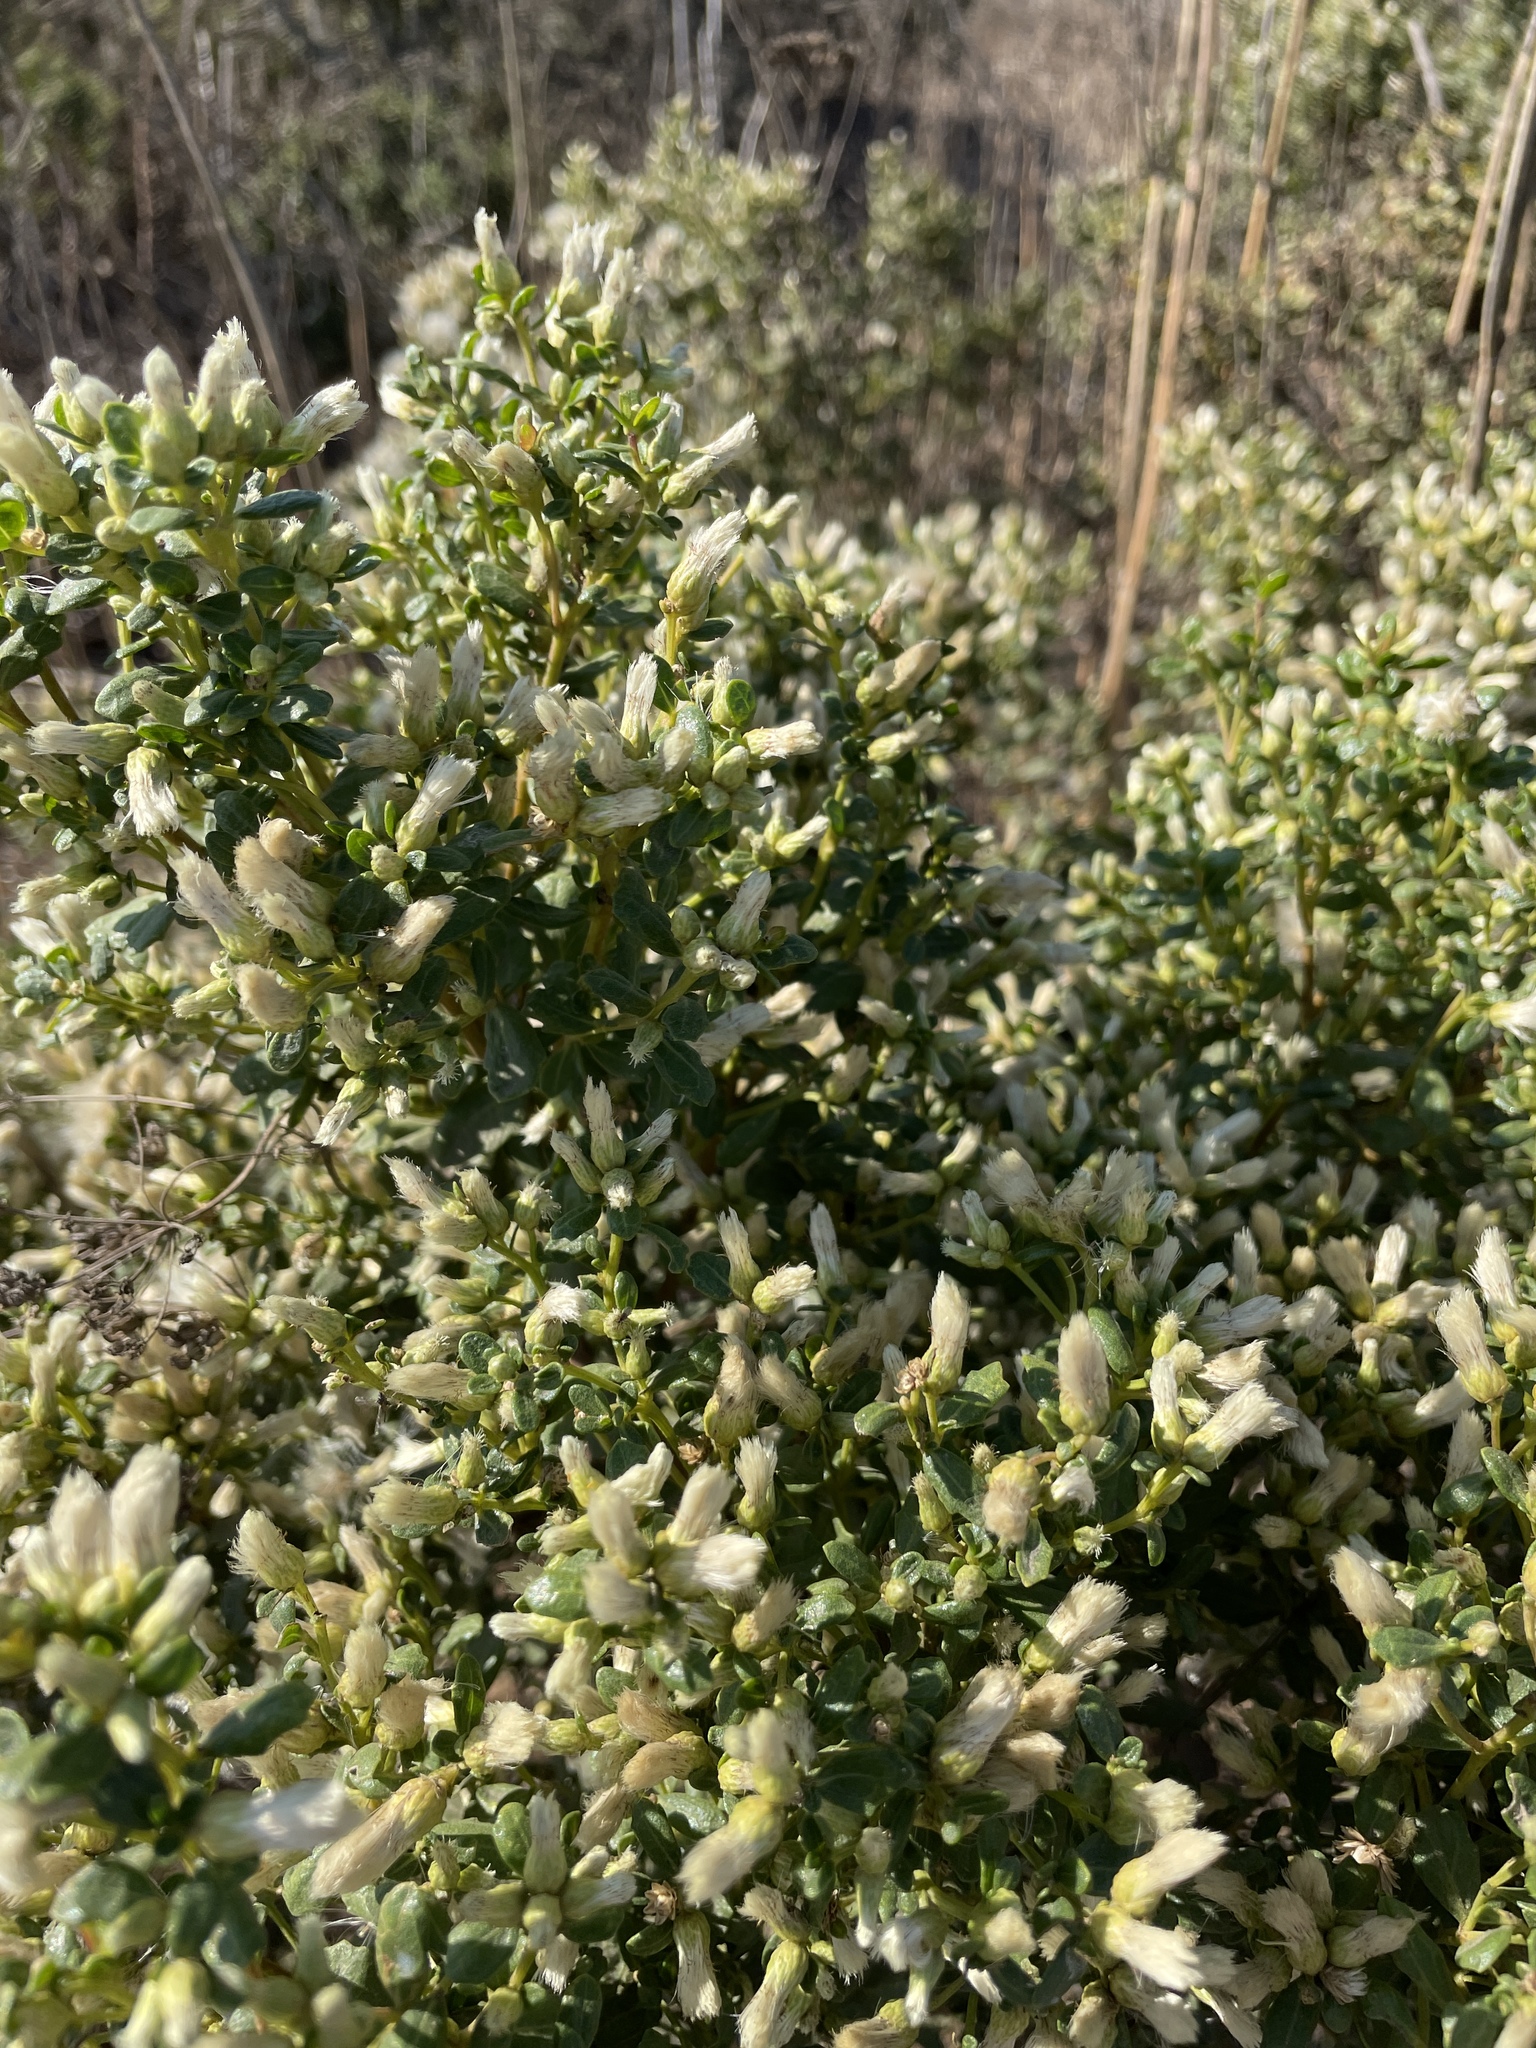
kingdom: Plantae
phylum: Tracheophyta
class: Magnoliopsida
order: Asterales
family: Asteraceae
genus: Baccharis
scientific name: Baccharis pilularis
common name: Coyotebrush
